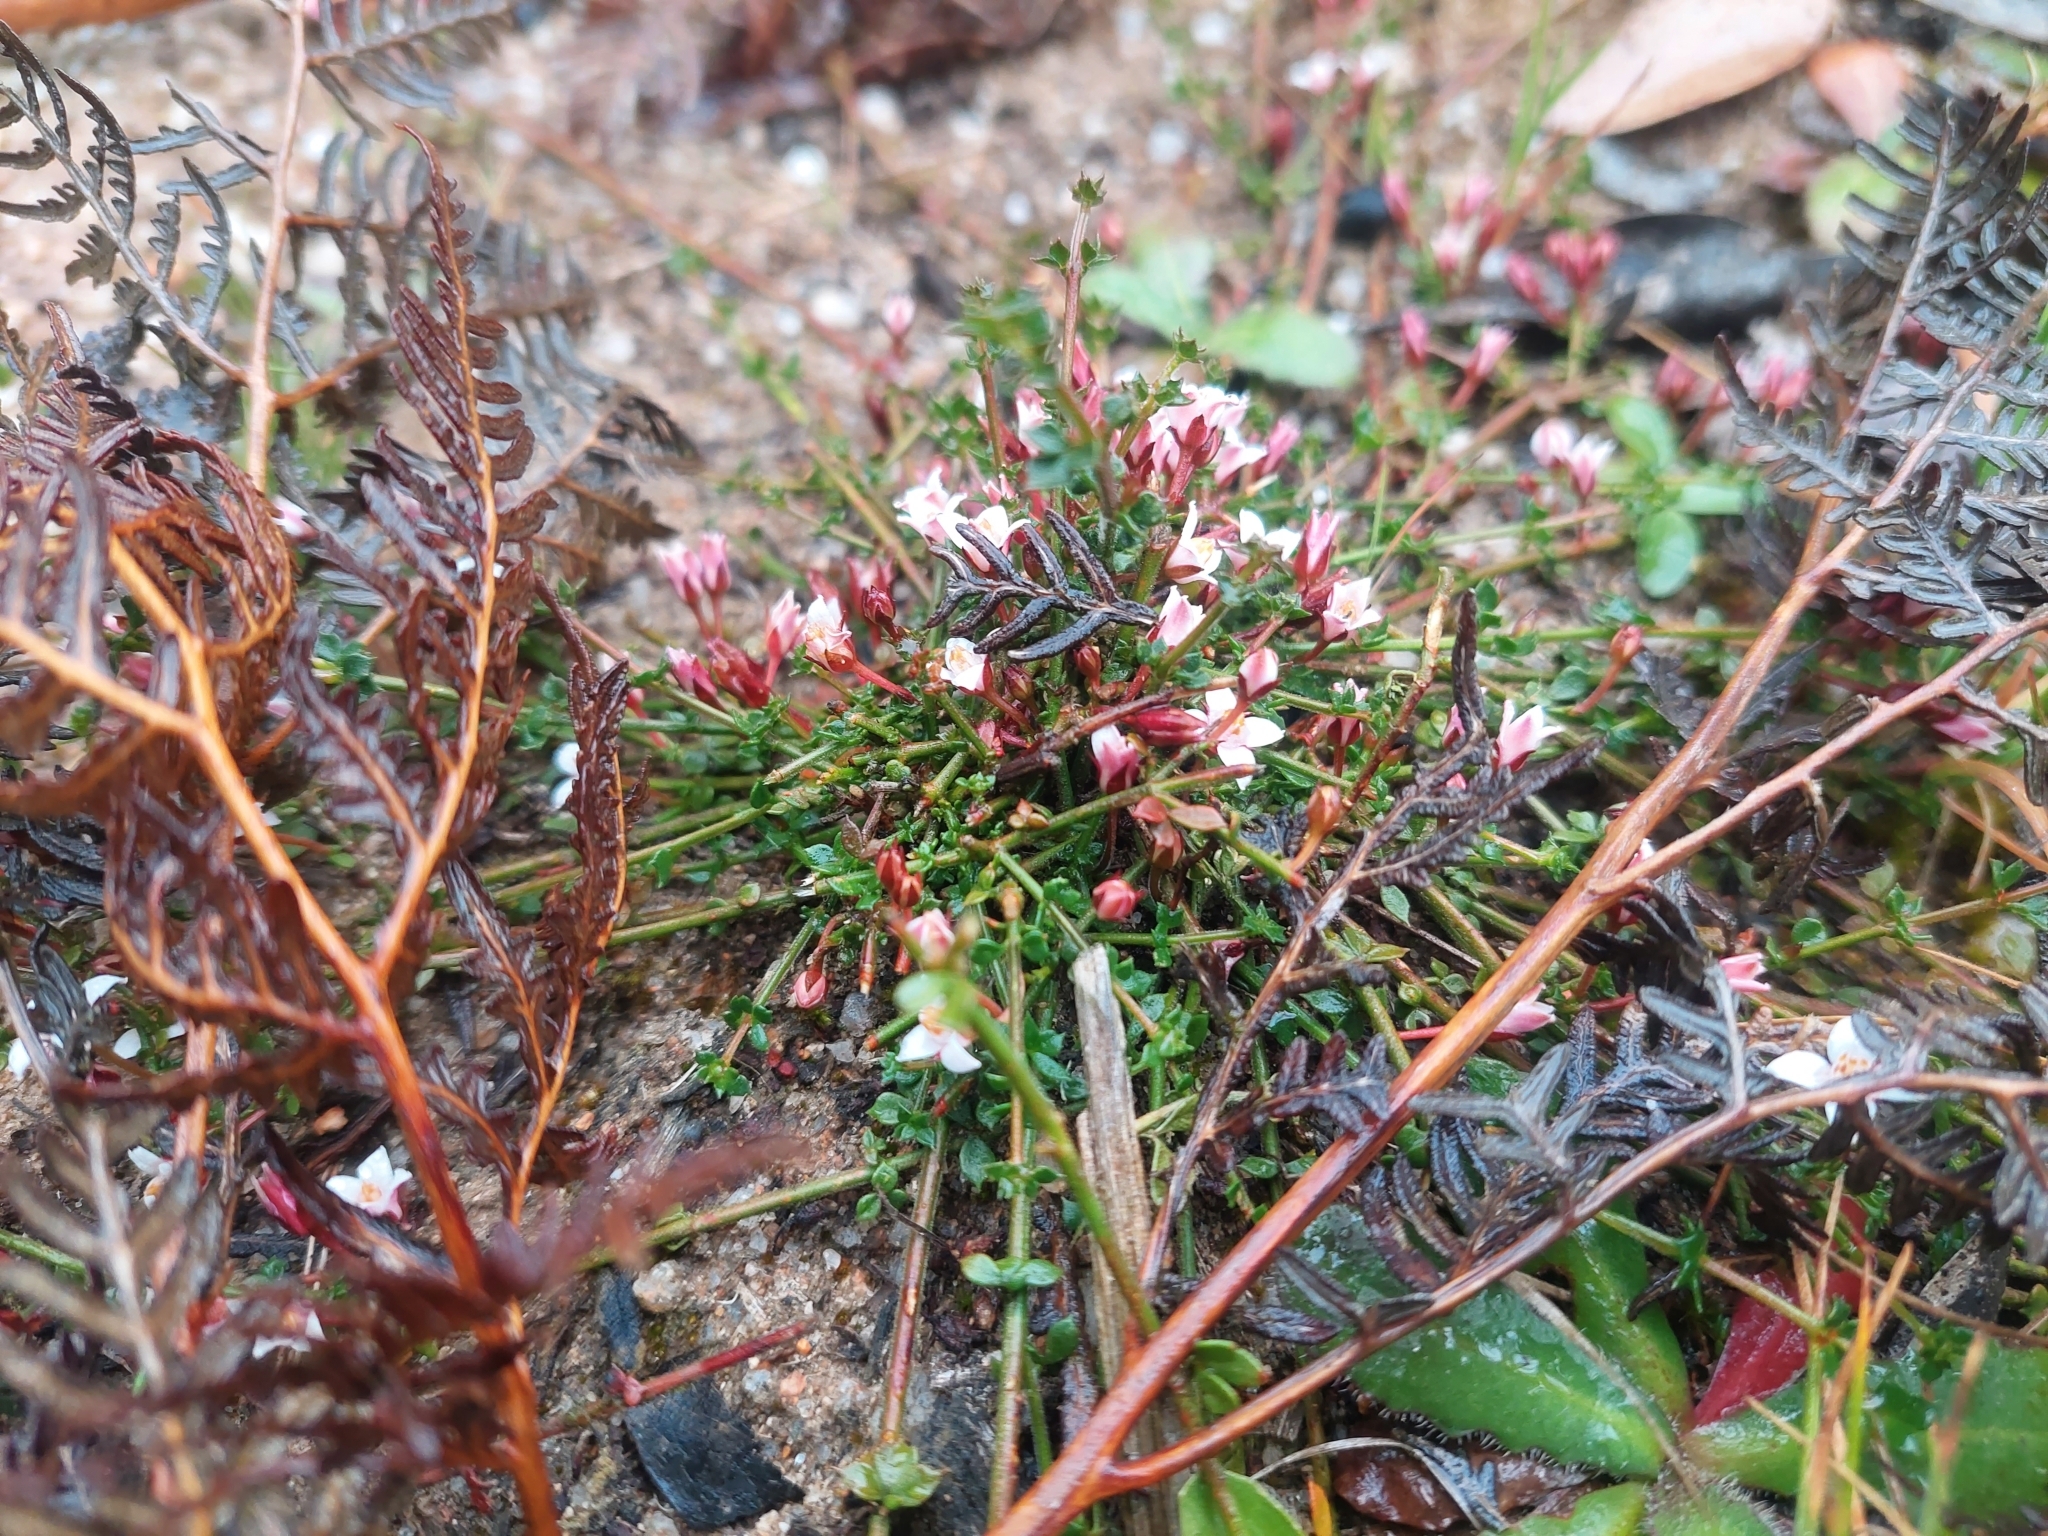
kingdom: Plantae
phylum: Tracheophyta
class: Magnoliopsida
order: Sapindales
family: Rutaceae
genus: Cyanothamnus
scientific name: Cyanothamnus nanus
